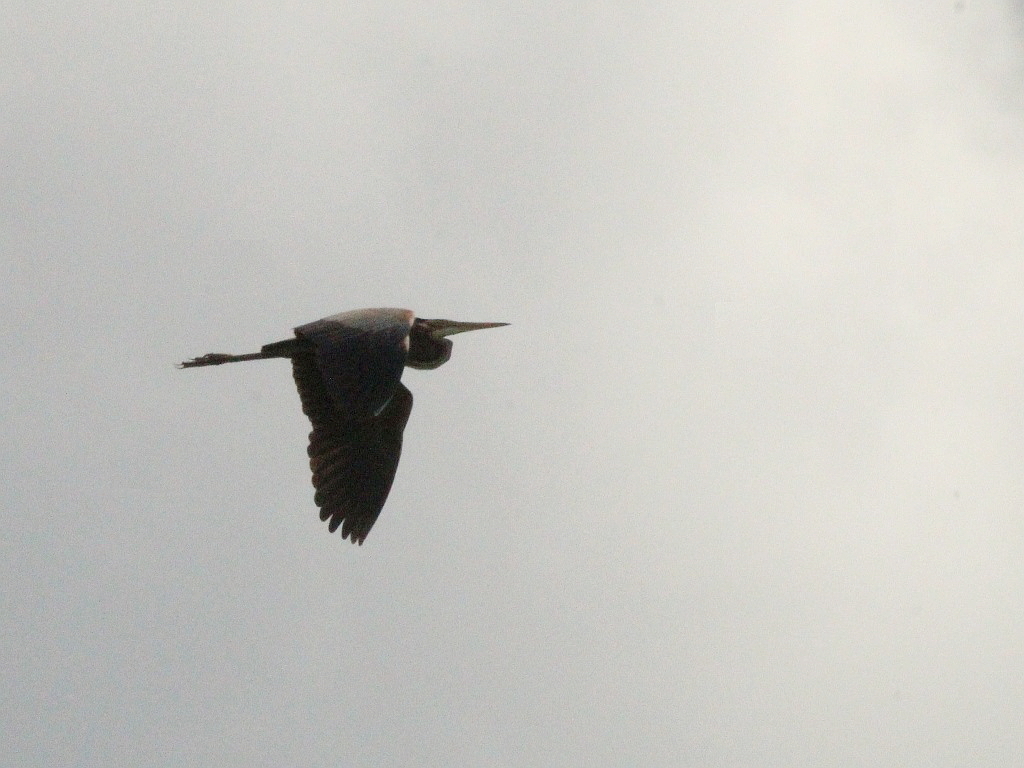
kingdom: Animalia
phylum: Chordata
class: Aves
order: Pelecaniformes
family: Ardeidae
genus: Ardea
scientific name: Ardea purpurea
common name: Purple heron
